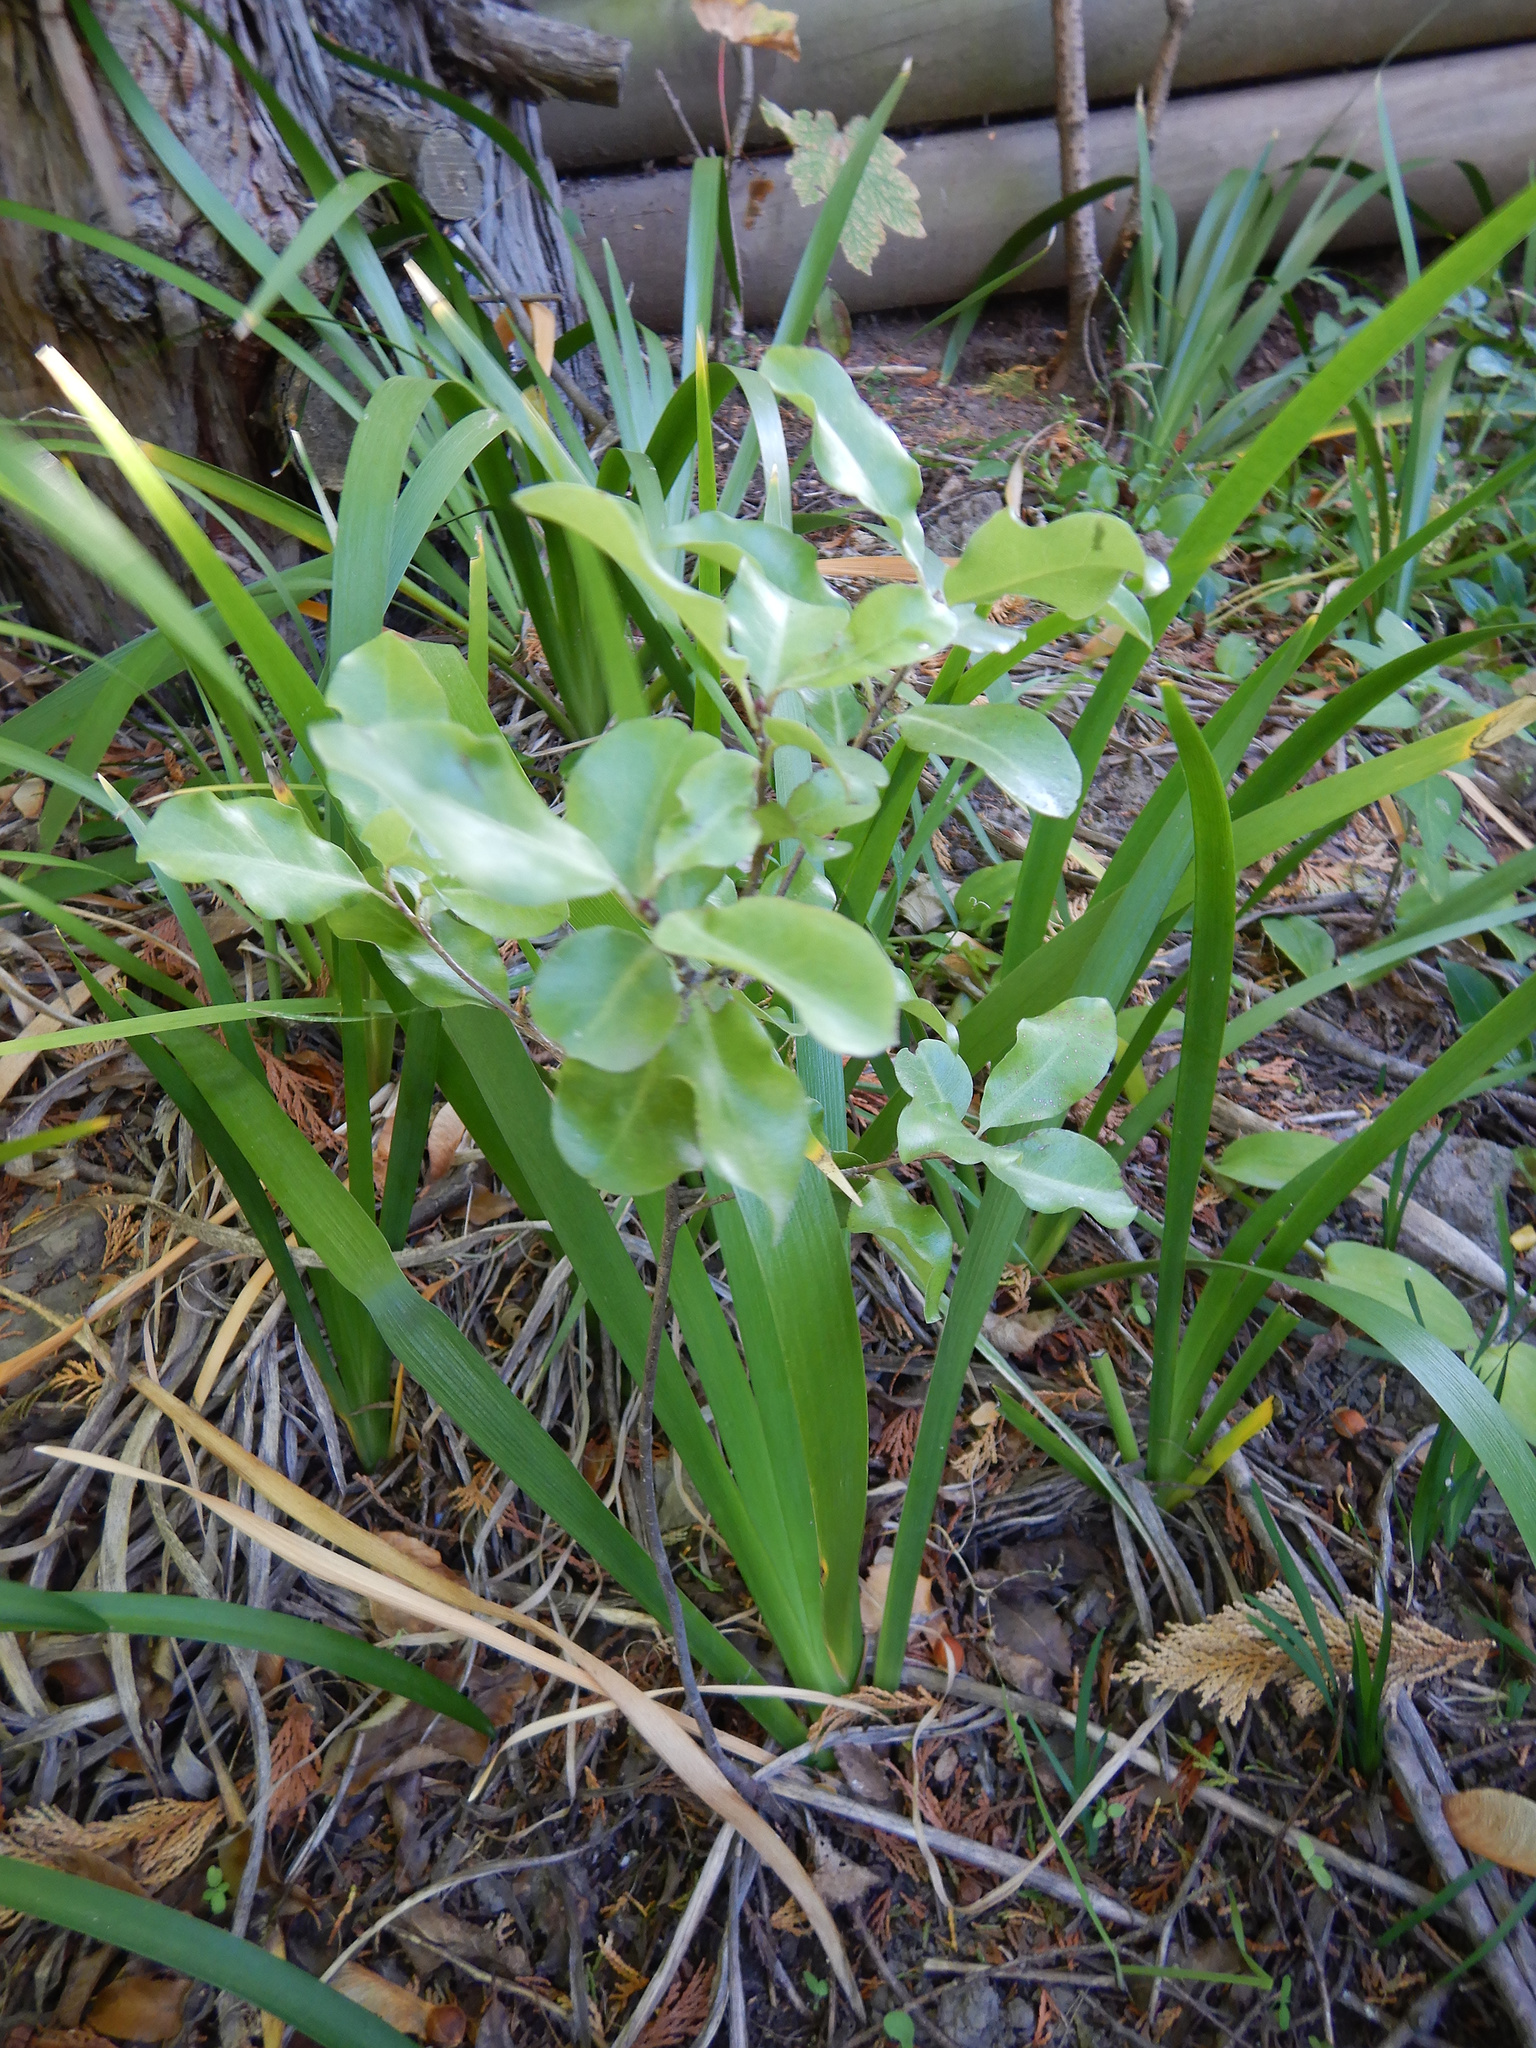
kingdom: Plantae
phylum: Tracheophyta
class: Magnoliopsida
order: Apiales
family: Pittosporaceae
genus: Pittosporum
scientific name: Pittosporum tenuifolium
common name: Kohuhu
